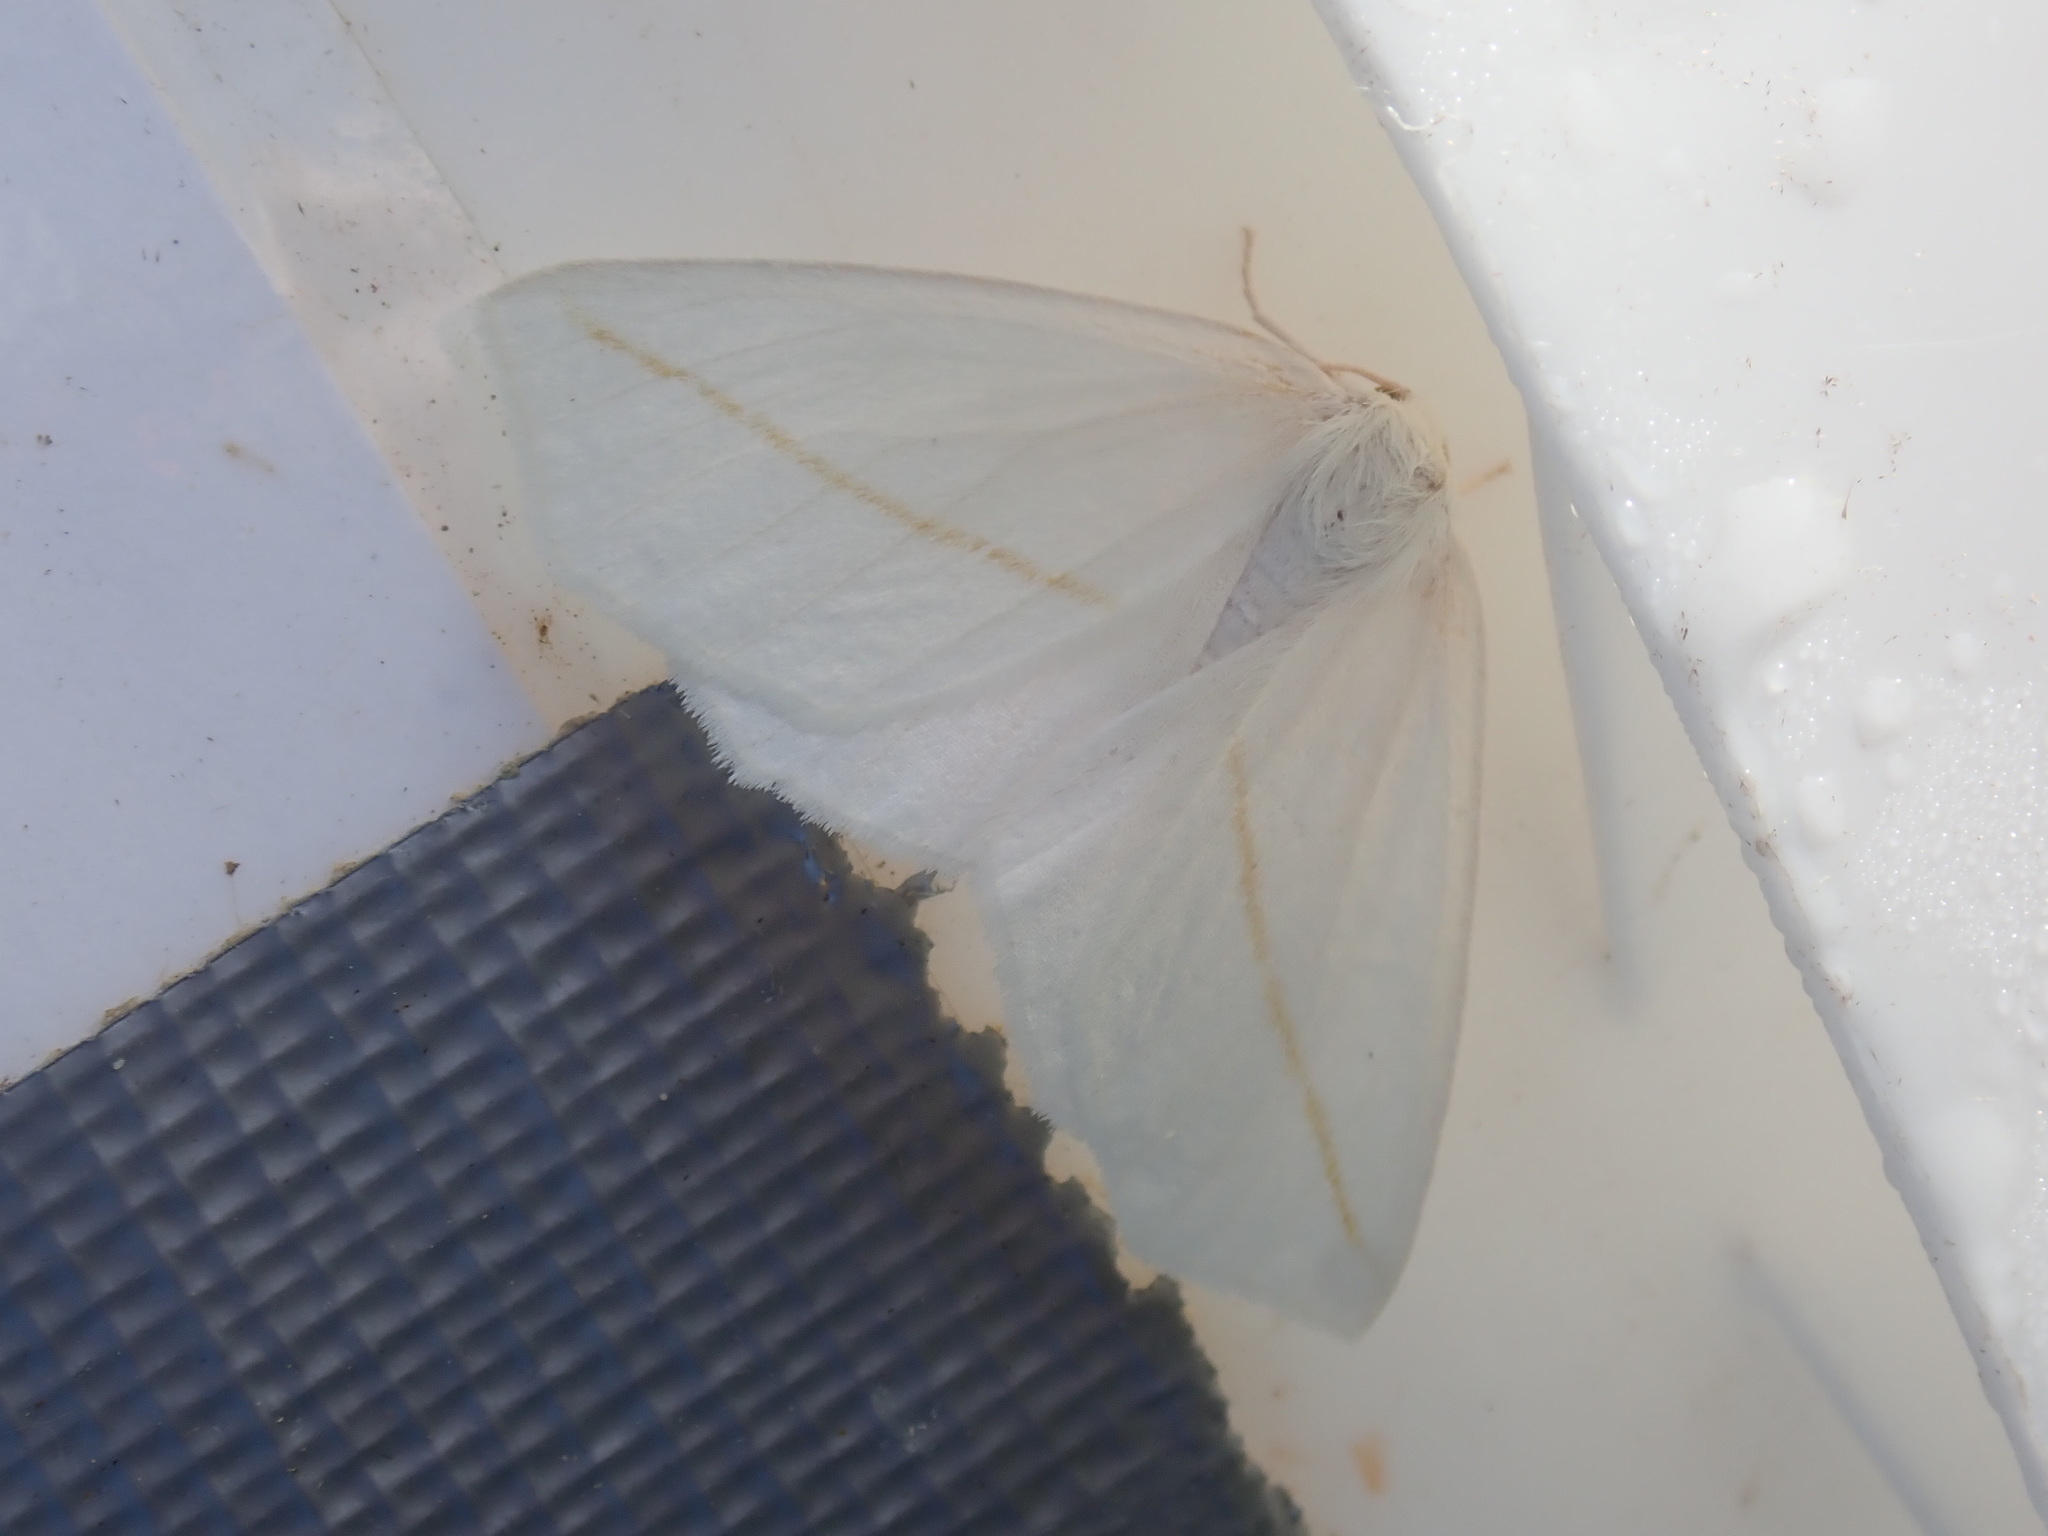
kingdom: Animalia
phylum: Arthropoda
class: Insecta
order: Lepidoptera
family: Geometridae
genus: Tetracis
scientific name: Tetracis cachexiata
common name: White slant-line
